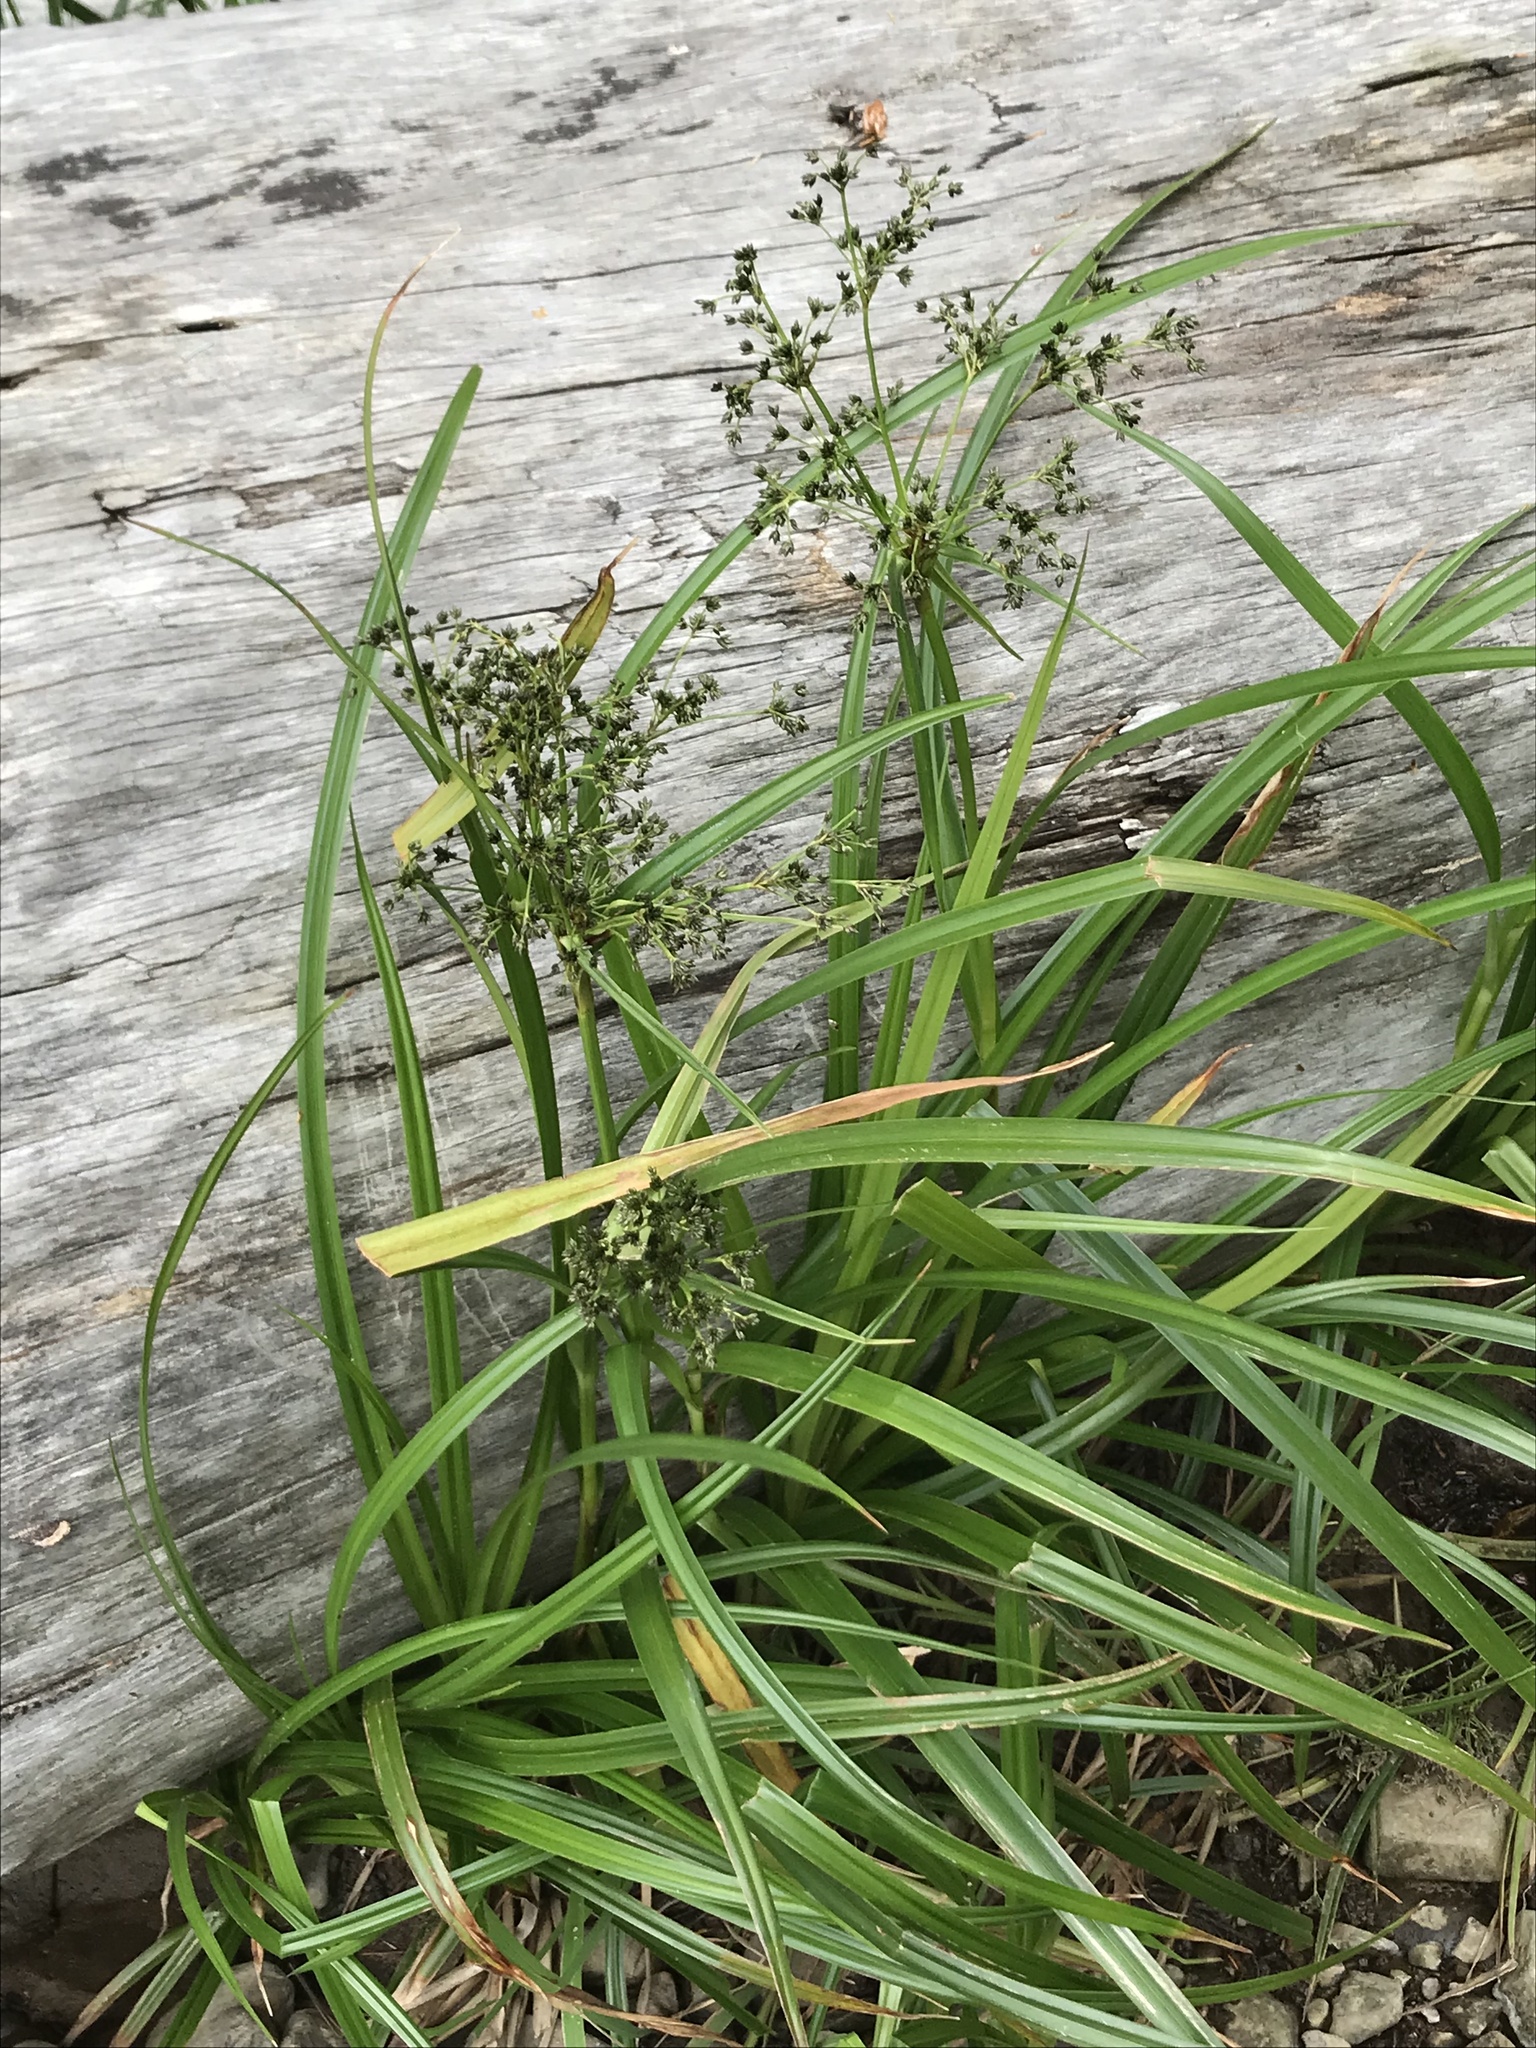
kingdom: Plantae
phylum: Tracheophyta
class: Liliopsida
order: Poales
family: Cyperaceae
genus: Scirpus
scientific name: Scirpus microcarpus
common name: Panicled bulrush
